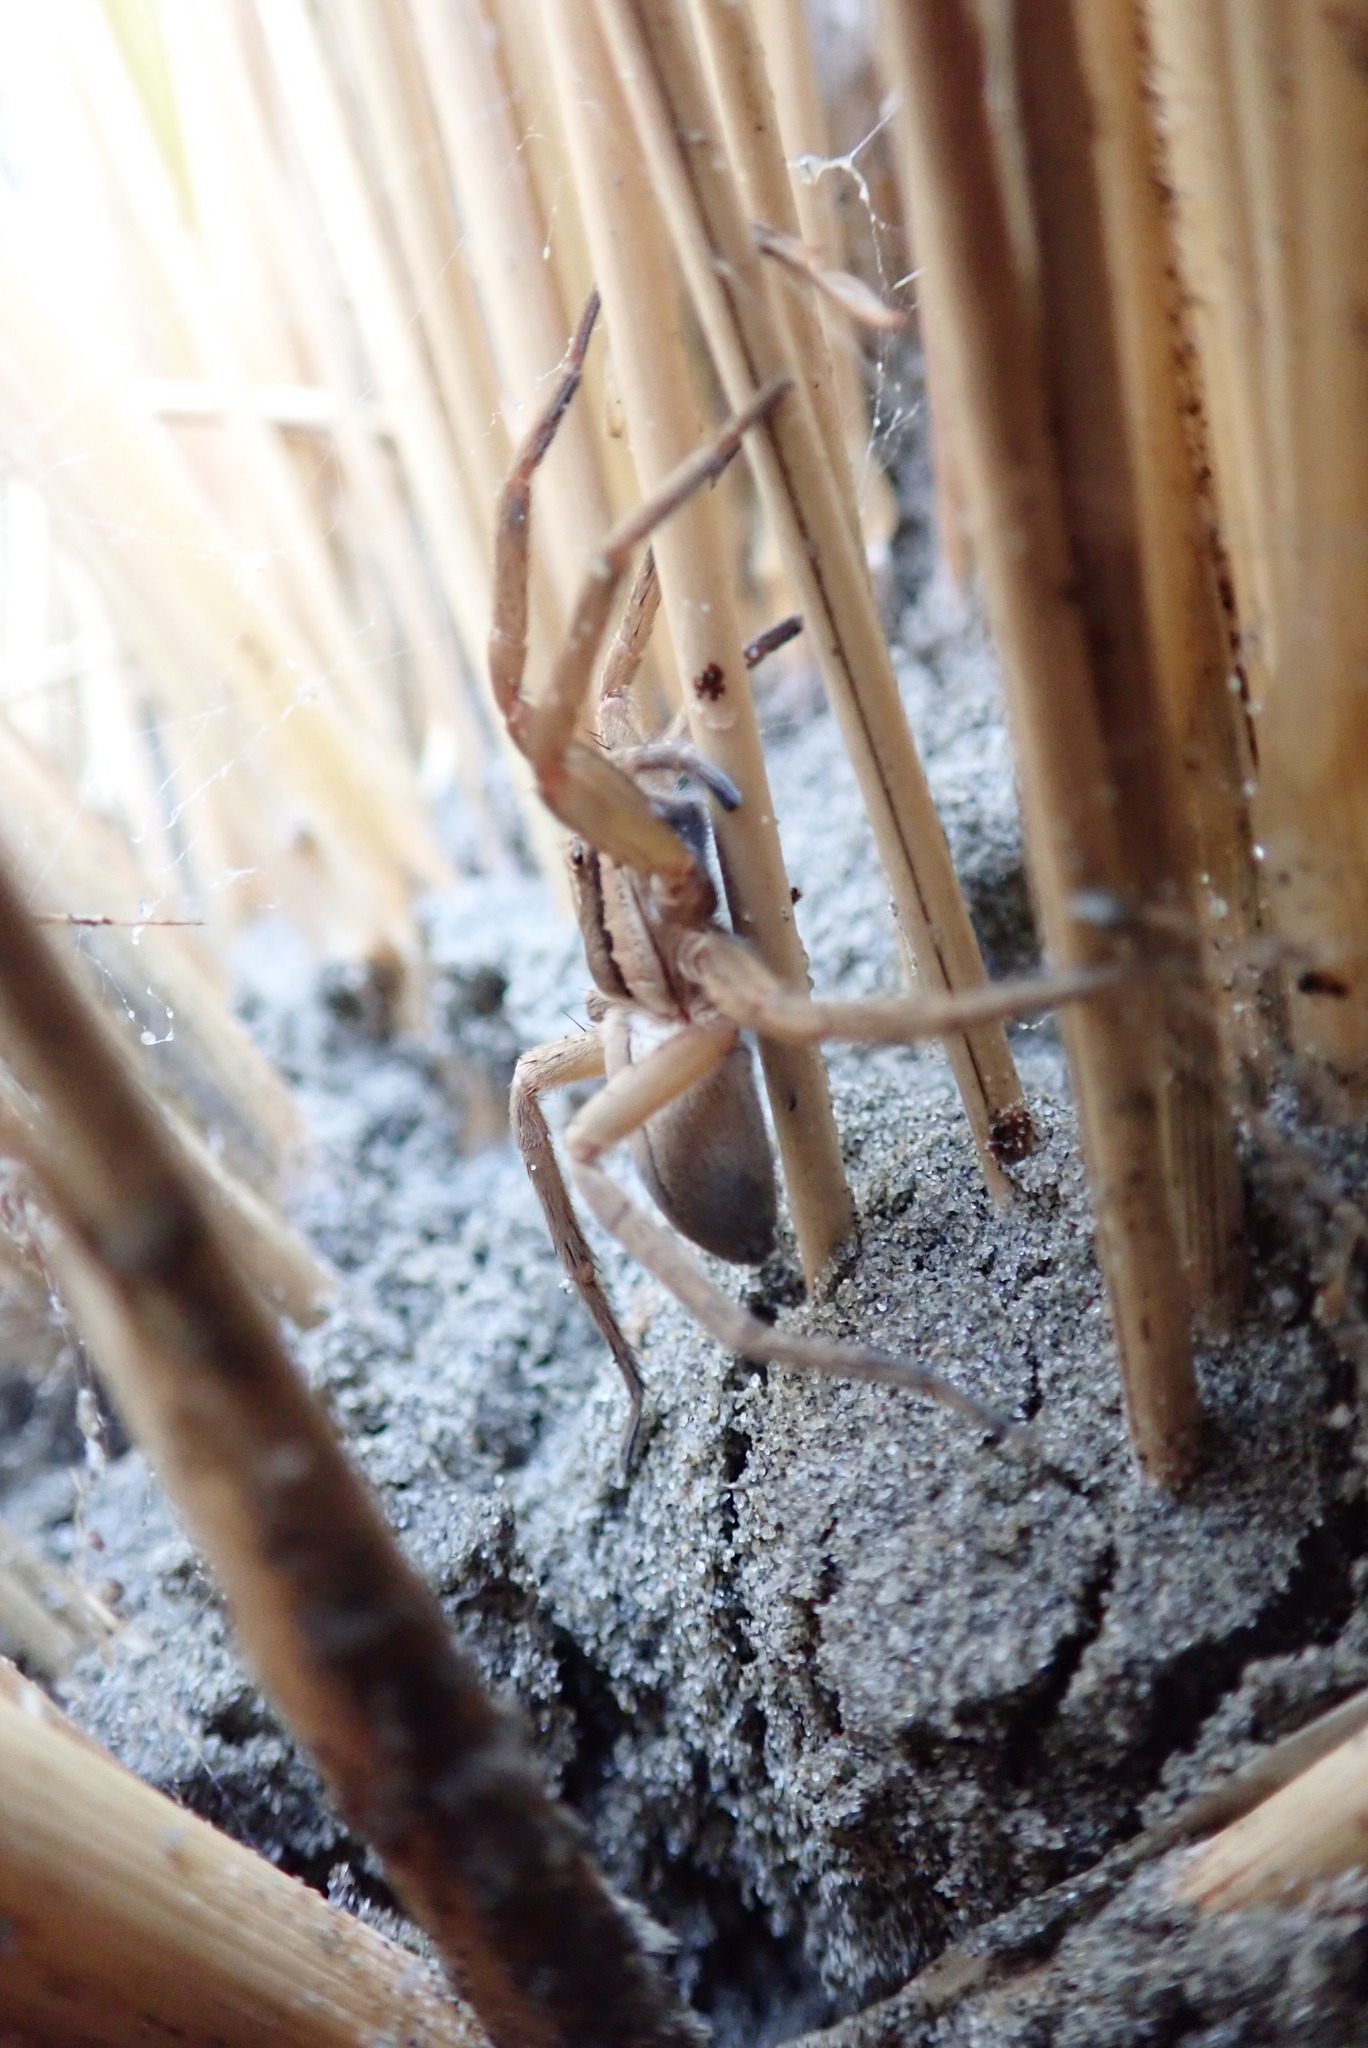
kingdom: Animalia
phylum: Arthropoda
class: Arachnida
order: Araneae
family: Pisauridae
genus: Dolomedes
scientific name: Dolomedes minor
